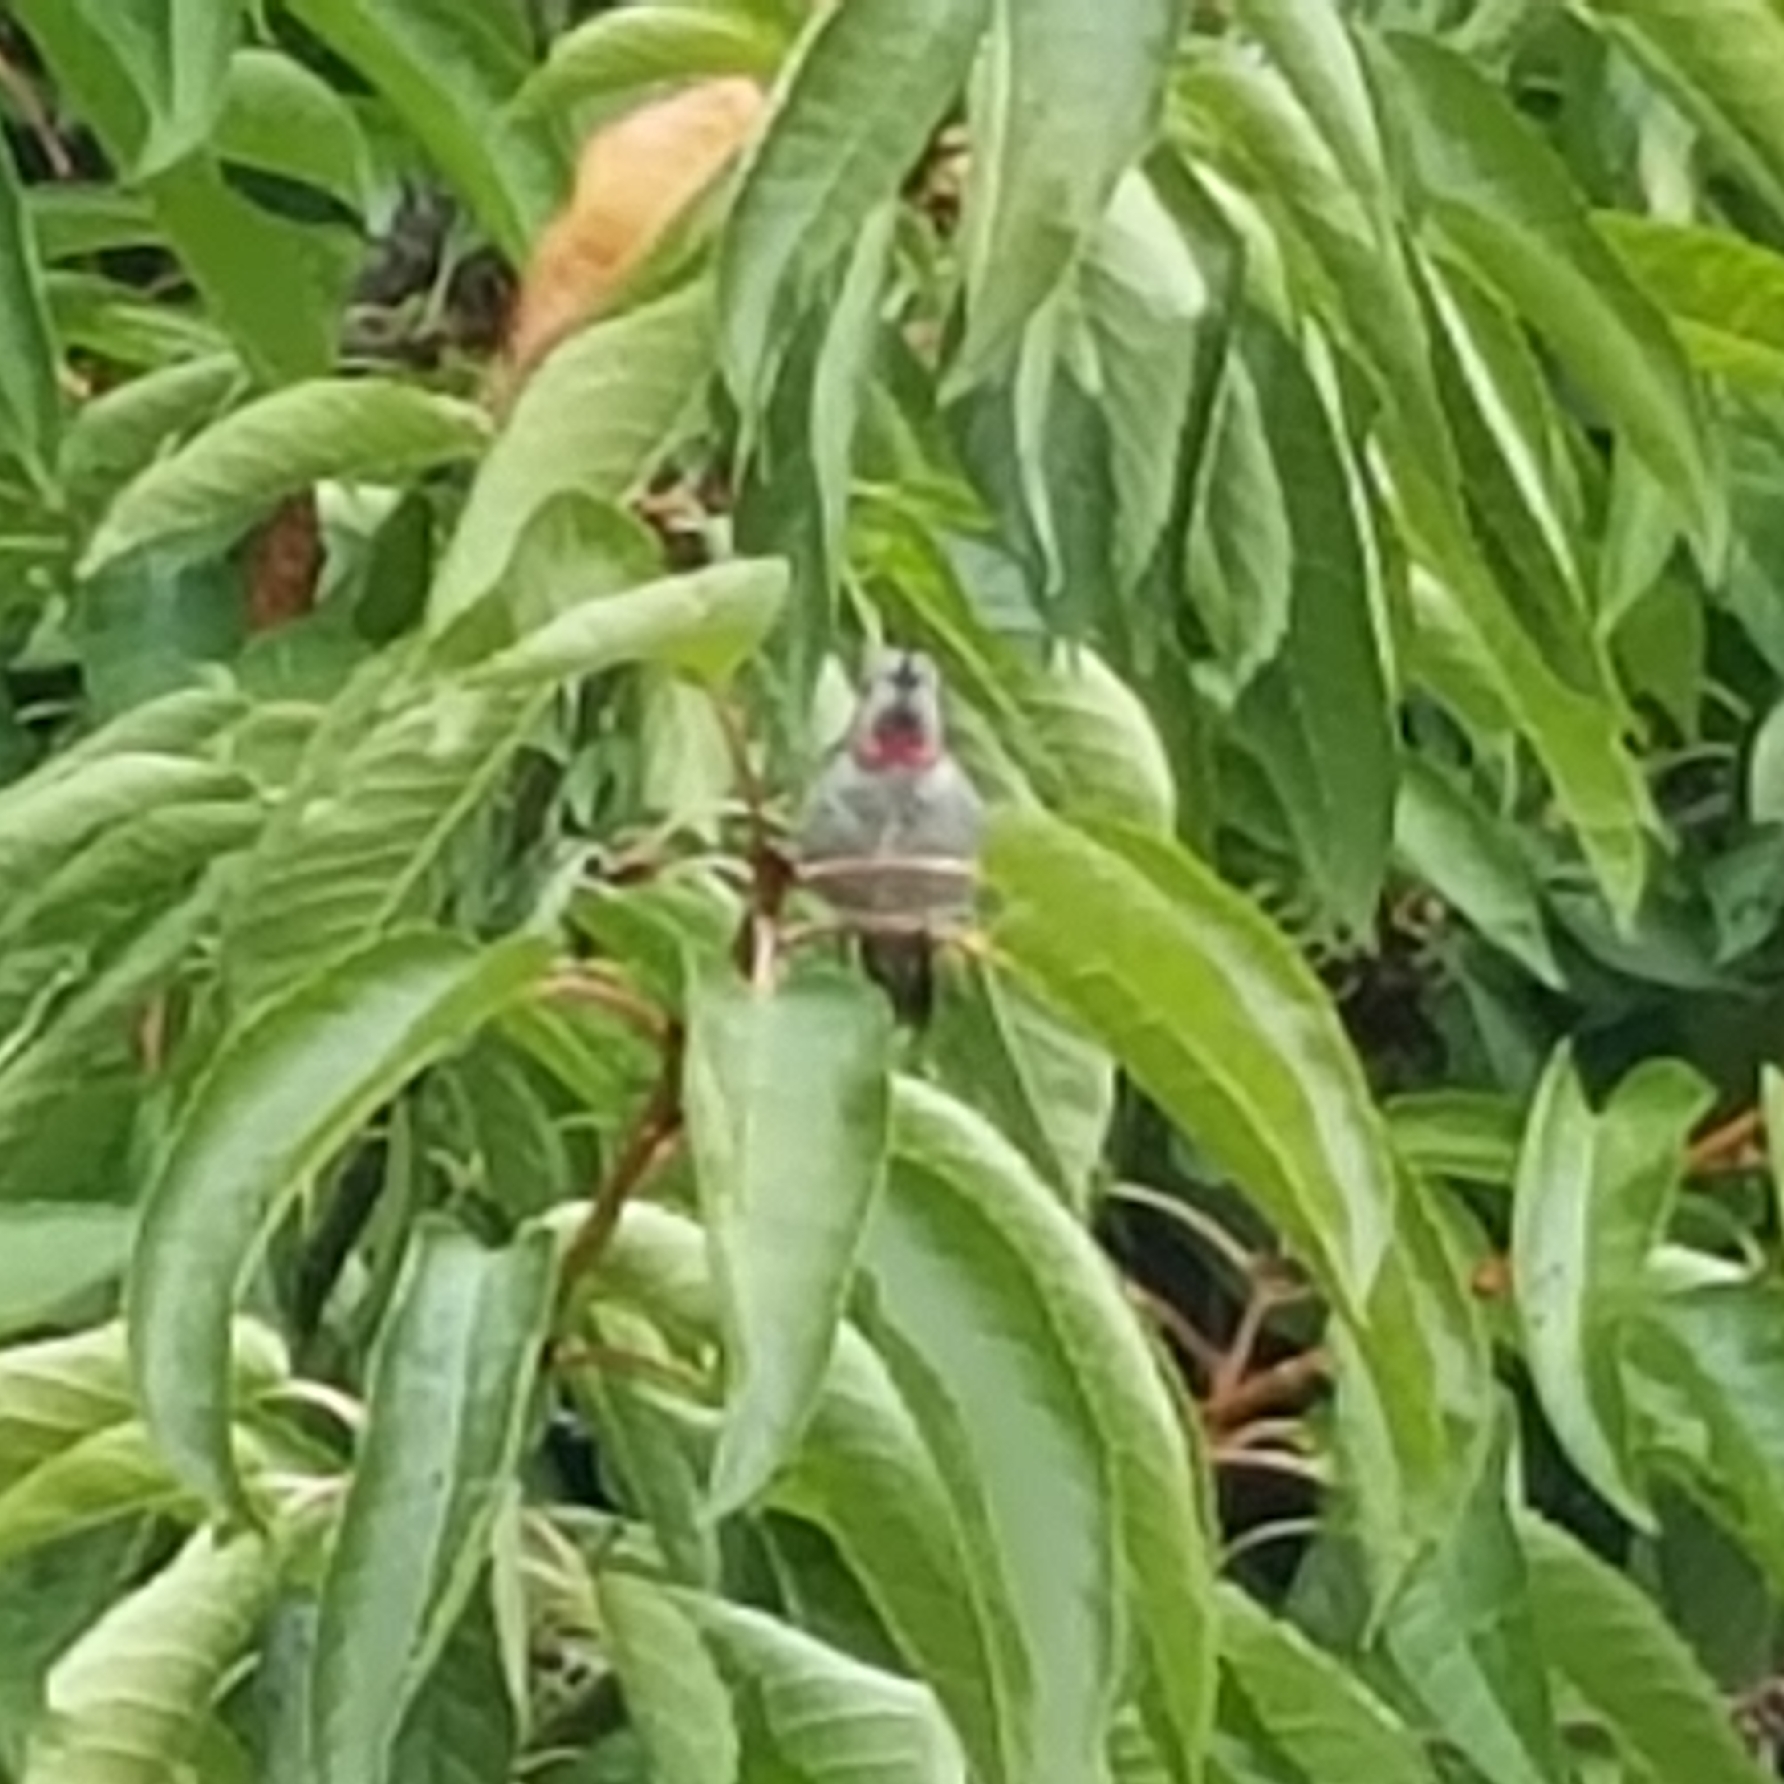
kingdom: Animalia
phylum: Chordata
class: Aves
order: Apodiformes
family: Trochilidae
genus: Calypte
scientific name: Calypte anna
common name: Anna's hummingbird
